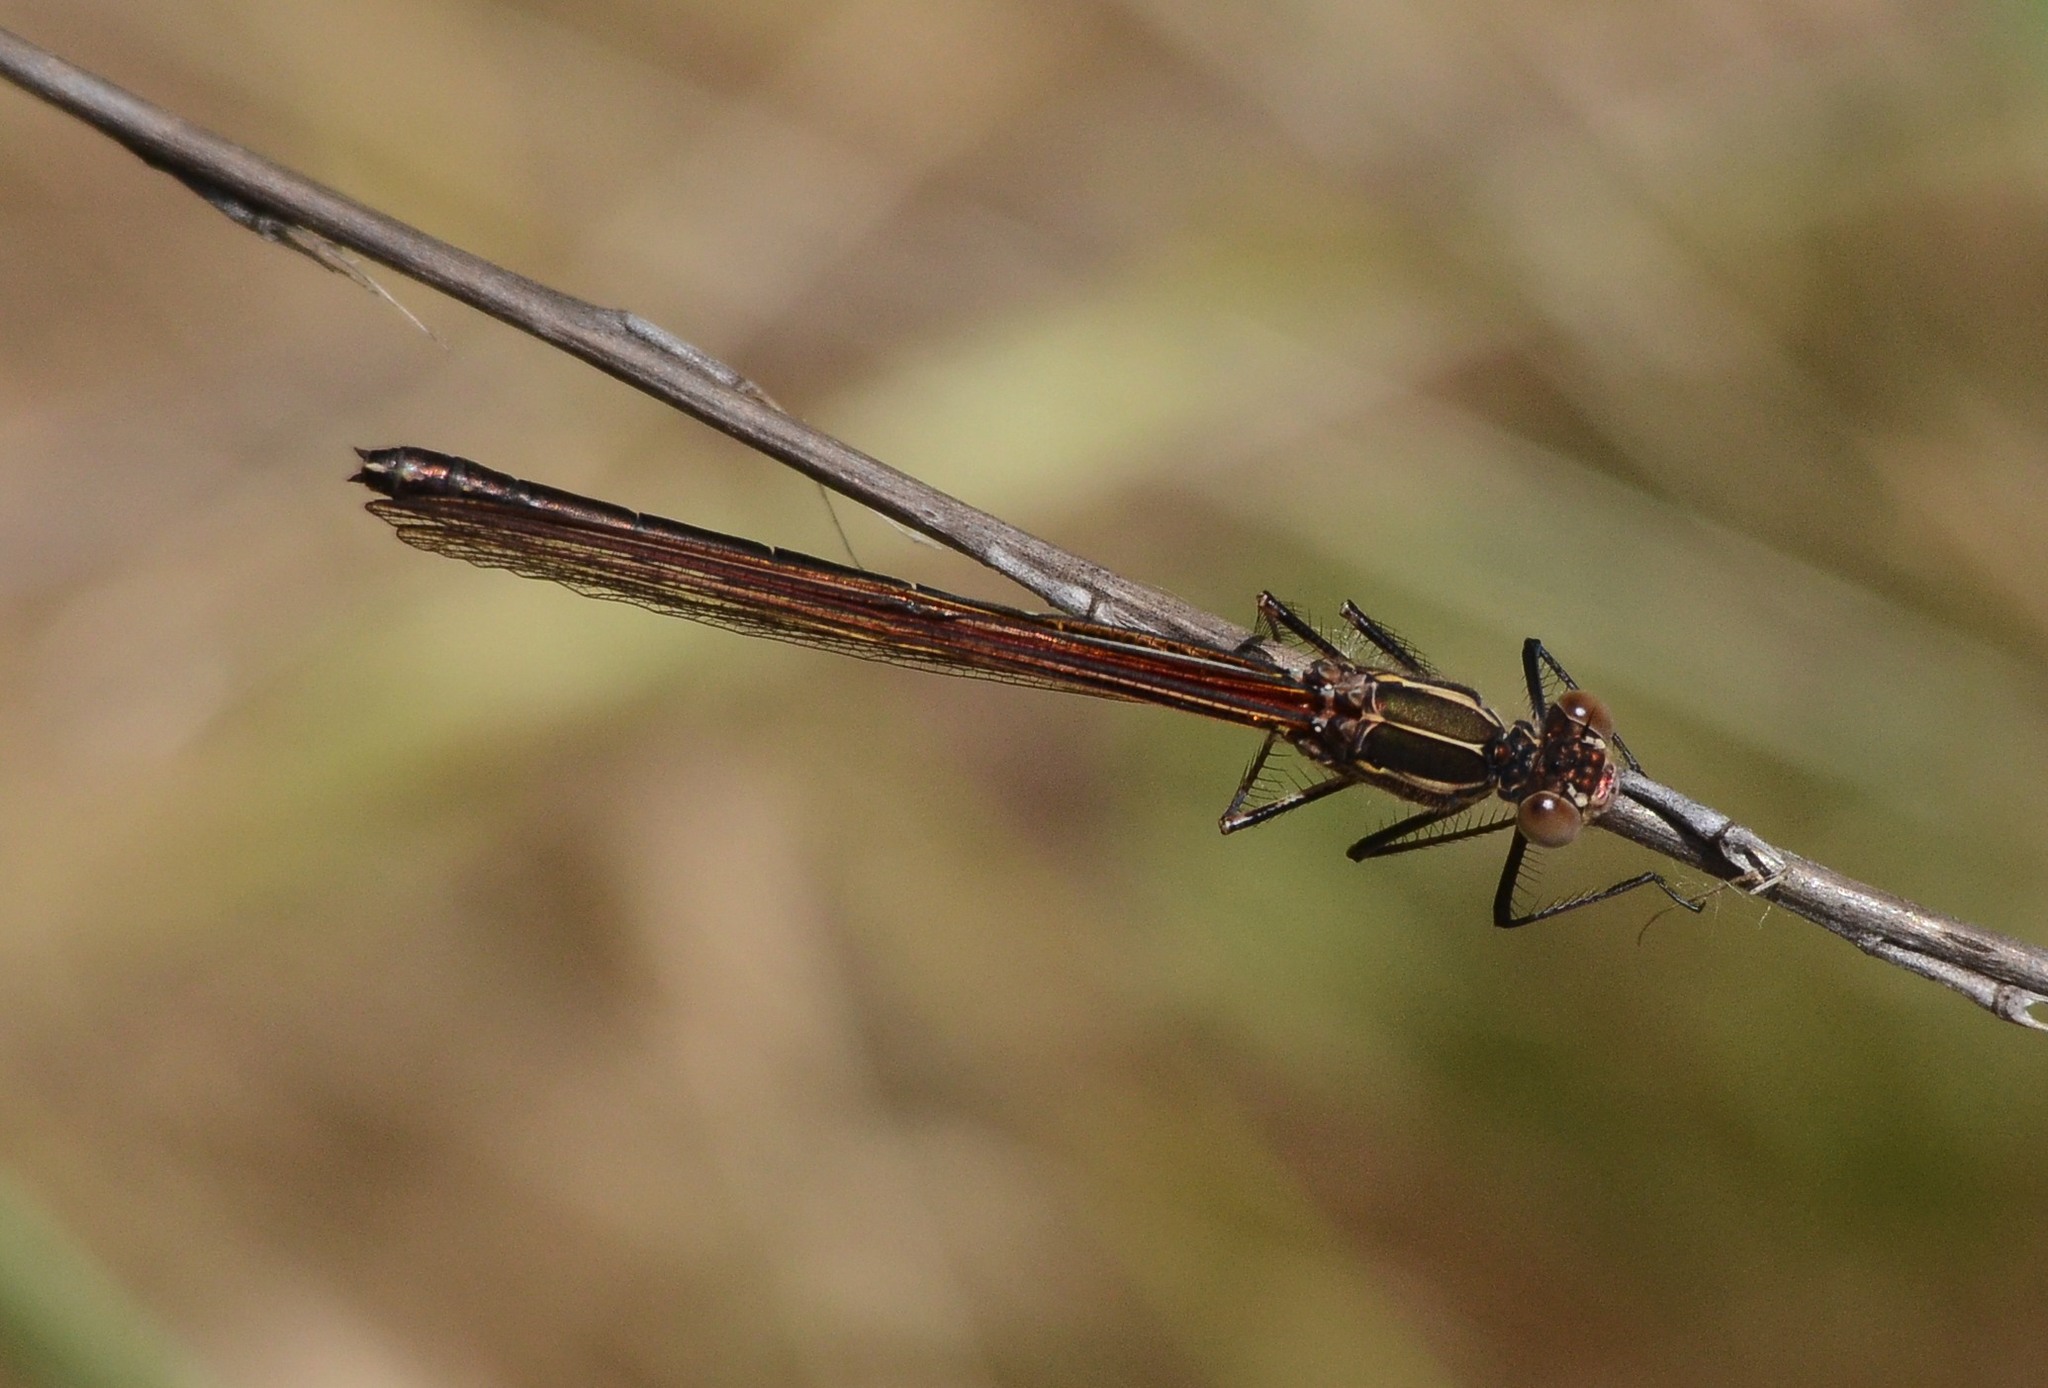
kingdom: Animalia
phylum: Arthropoda
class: Insecta
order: Odonata
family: Calopterygidae
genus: Hetaerina
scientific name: Hetaerina americana
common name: American rubyspot
